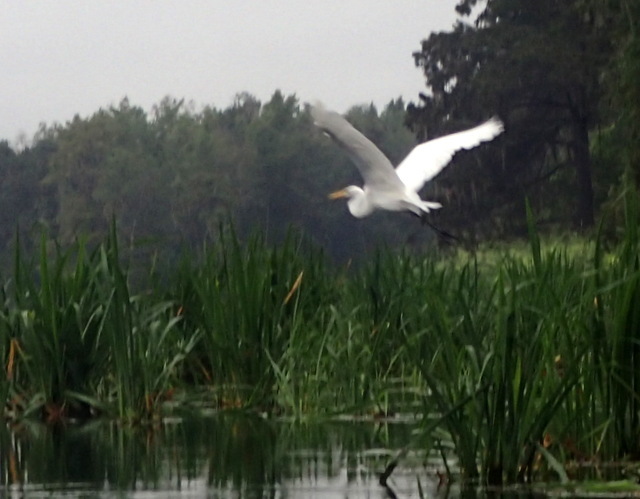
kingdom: Animalia
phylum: Chordata
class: Aves
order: Pelecaniformes
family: Ardeidae
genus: Ardea
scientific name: Ardea alba
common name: Great egret
